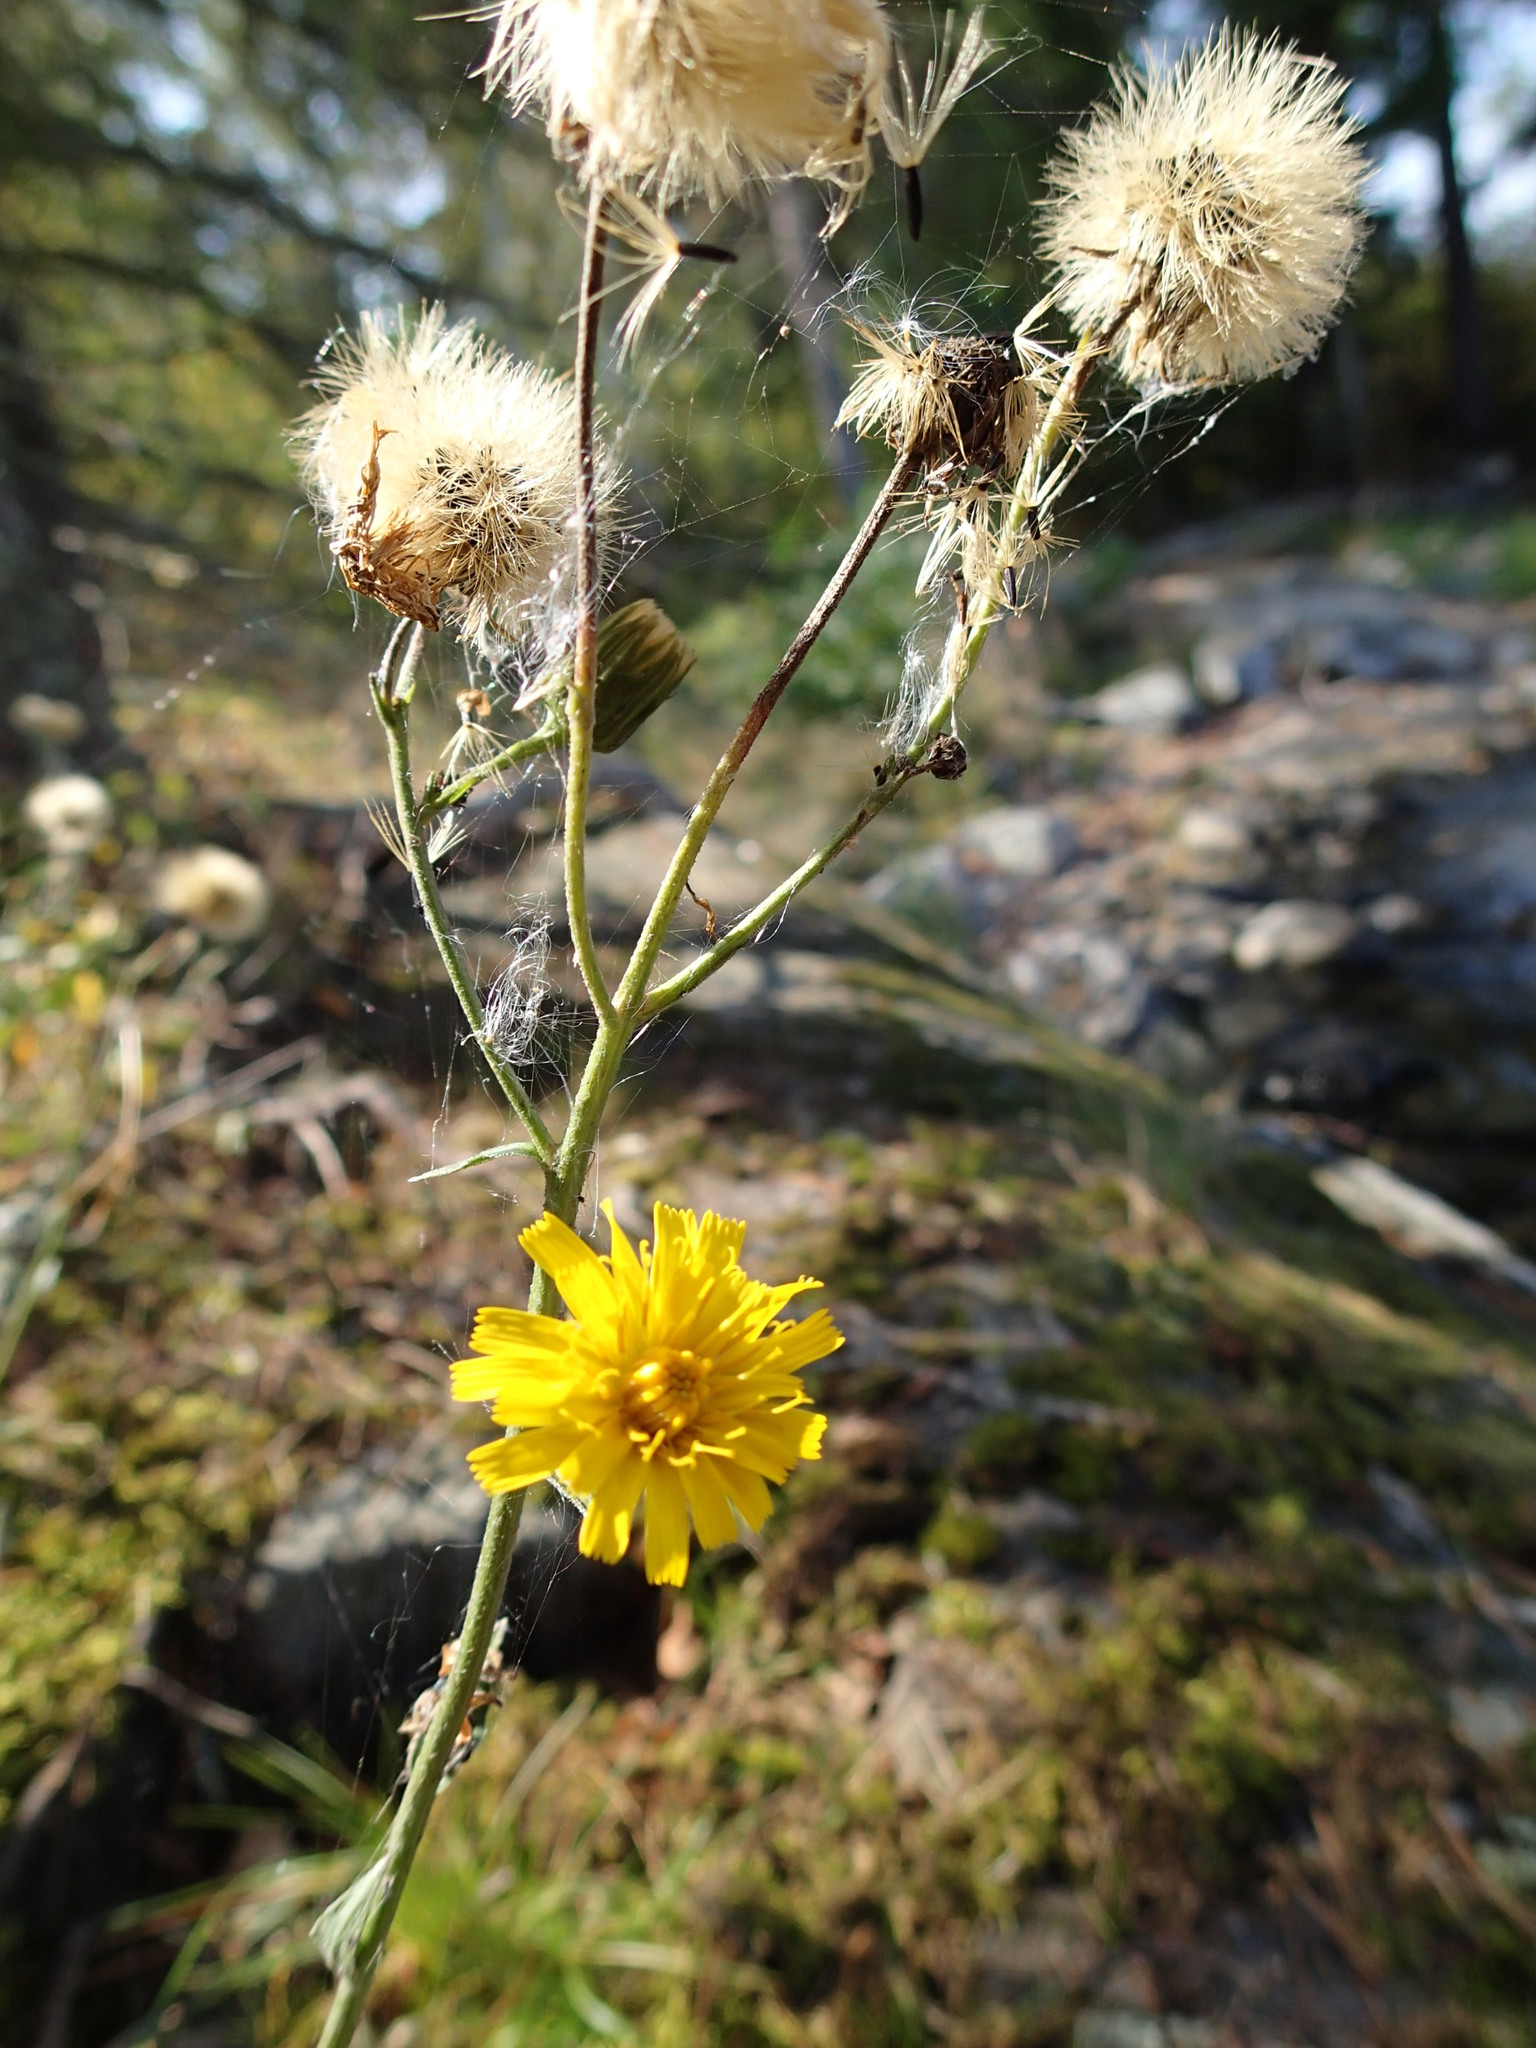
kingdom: Plantae
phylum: Tracheophyta
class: Magnoliopsida
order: Asterales
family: Asteraceae
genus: Hieracium
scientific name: Hieracium umbellatum
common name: Northern hawkweed
